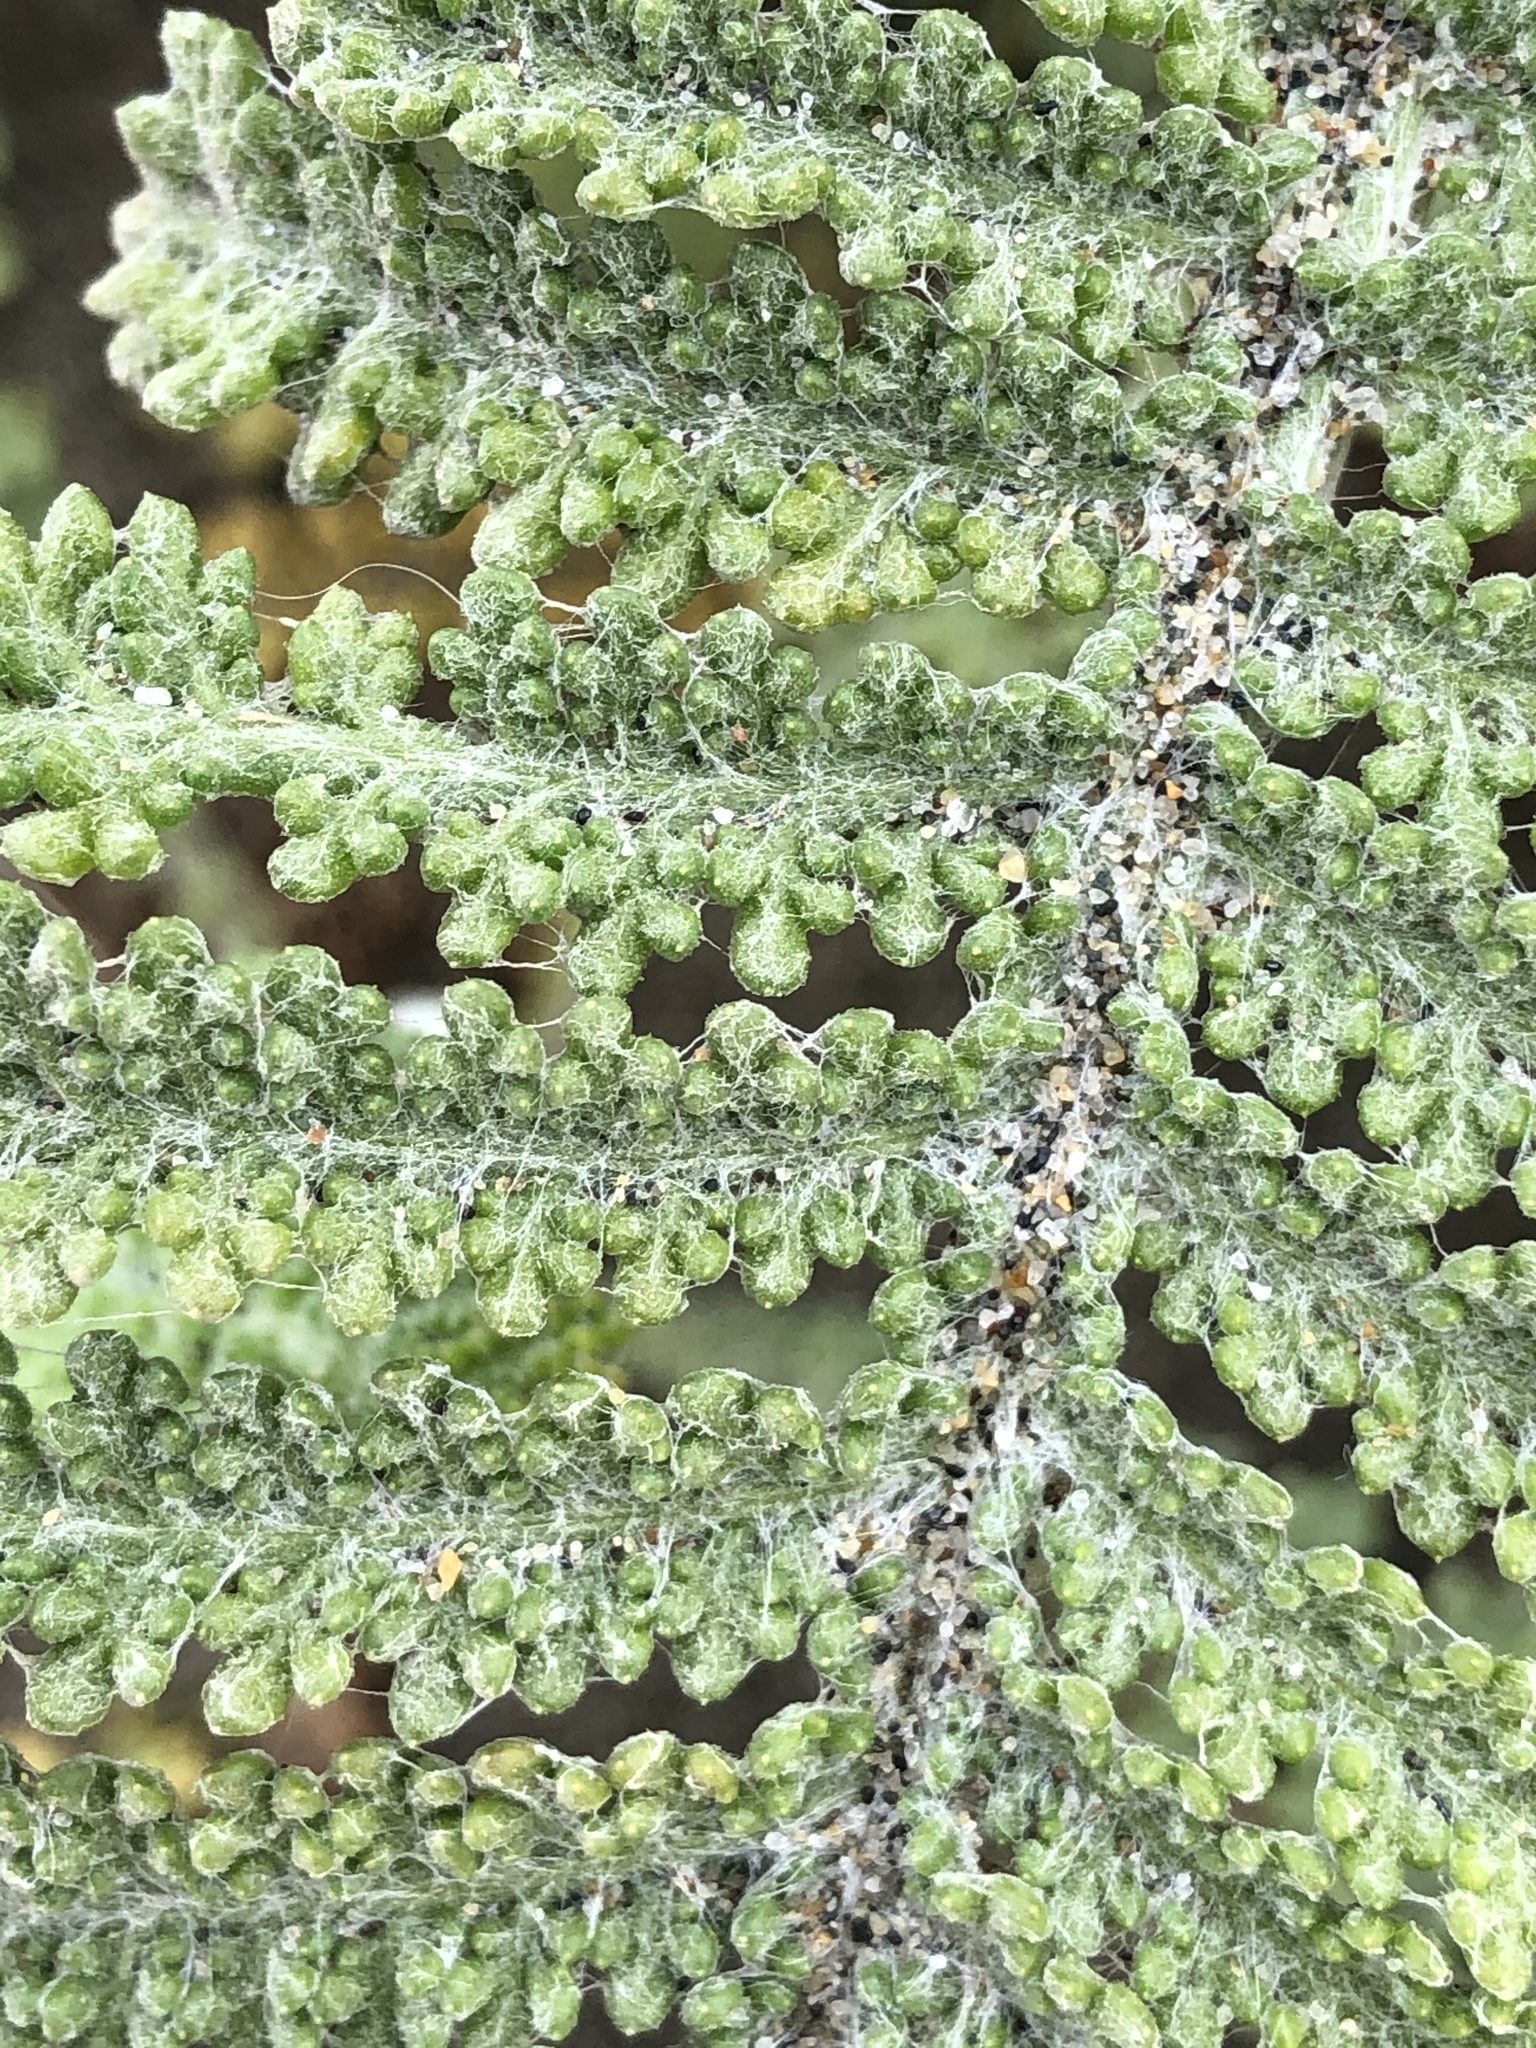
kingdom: Plantae
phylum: Tracheophyta
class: Magnoliopsida
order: Asterales
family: Asteraceae
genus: Tanacetum
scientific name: Tanacetum bipinnatum
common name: Dwarf tansy
